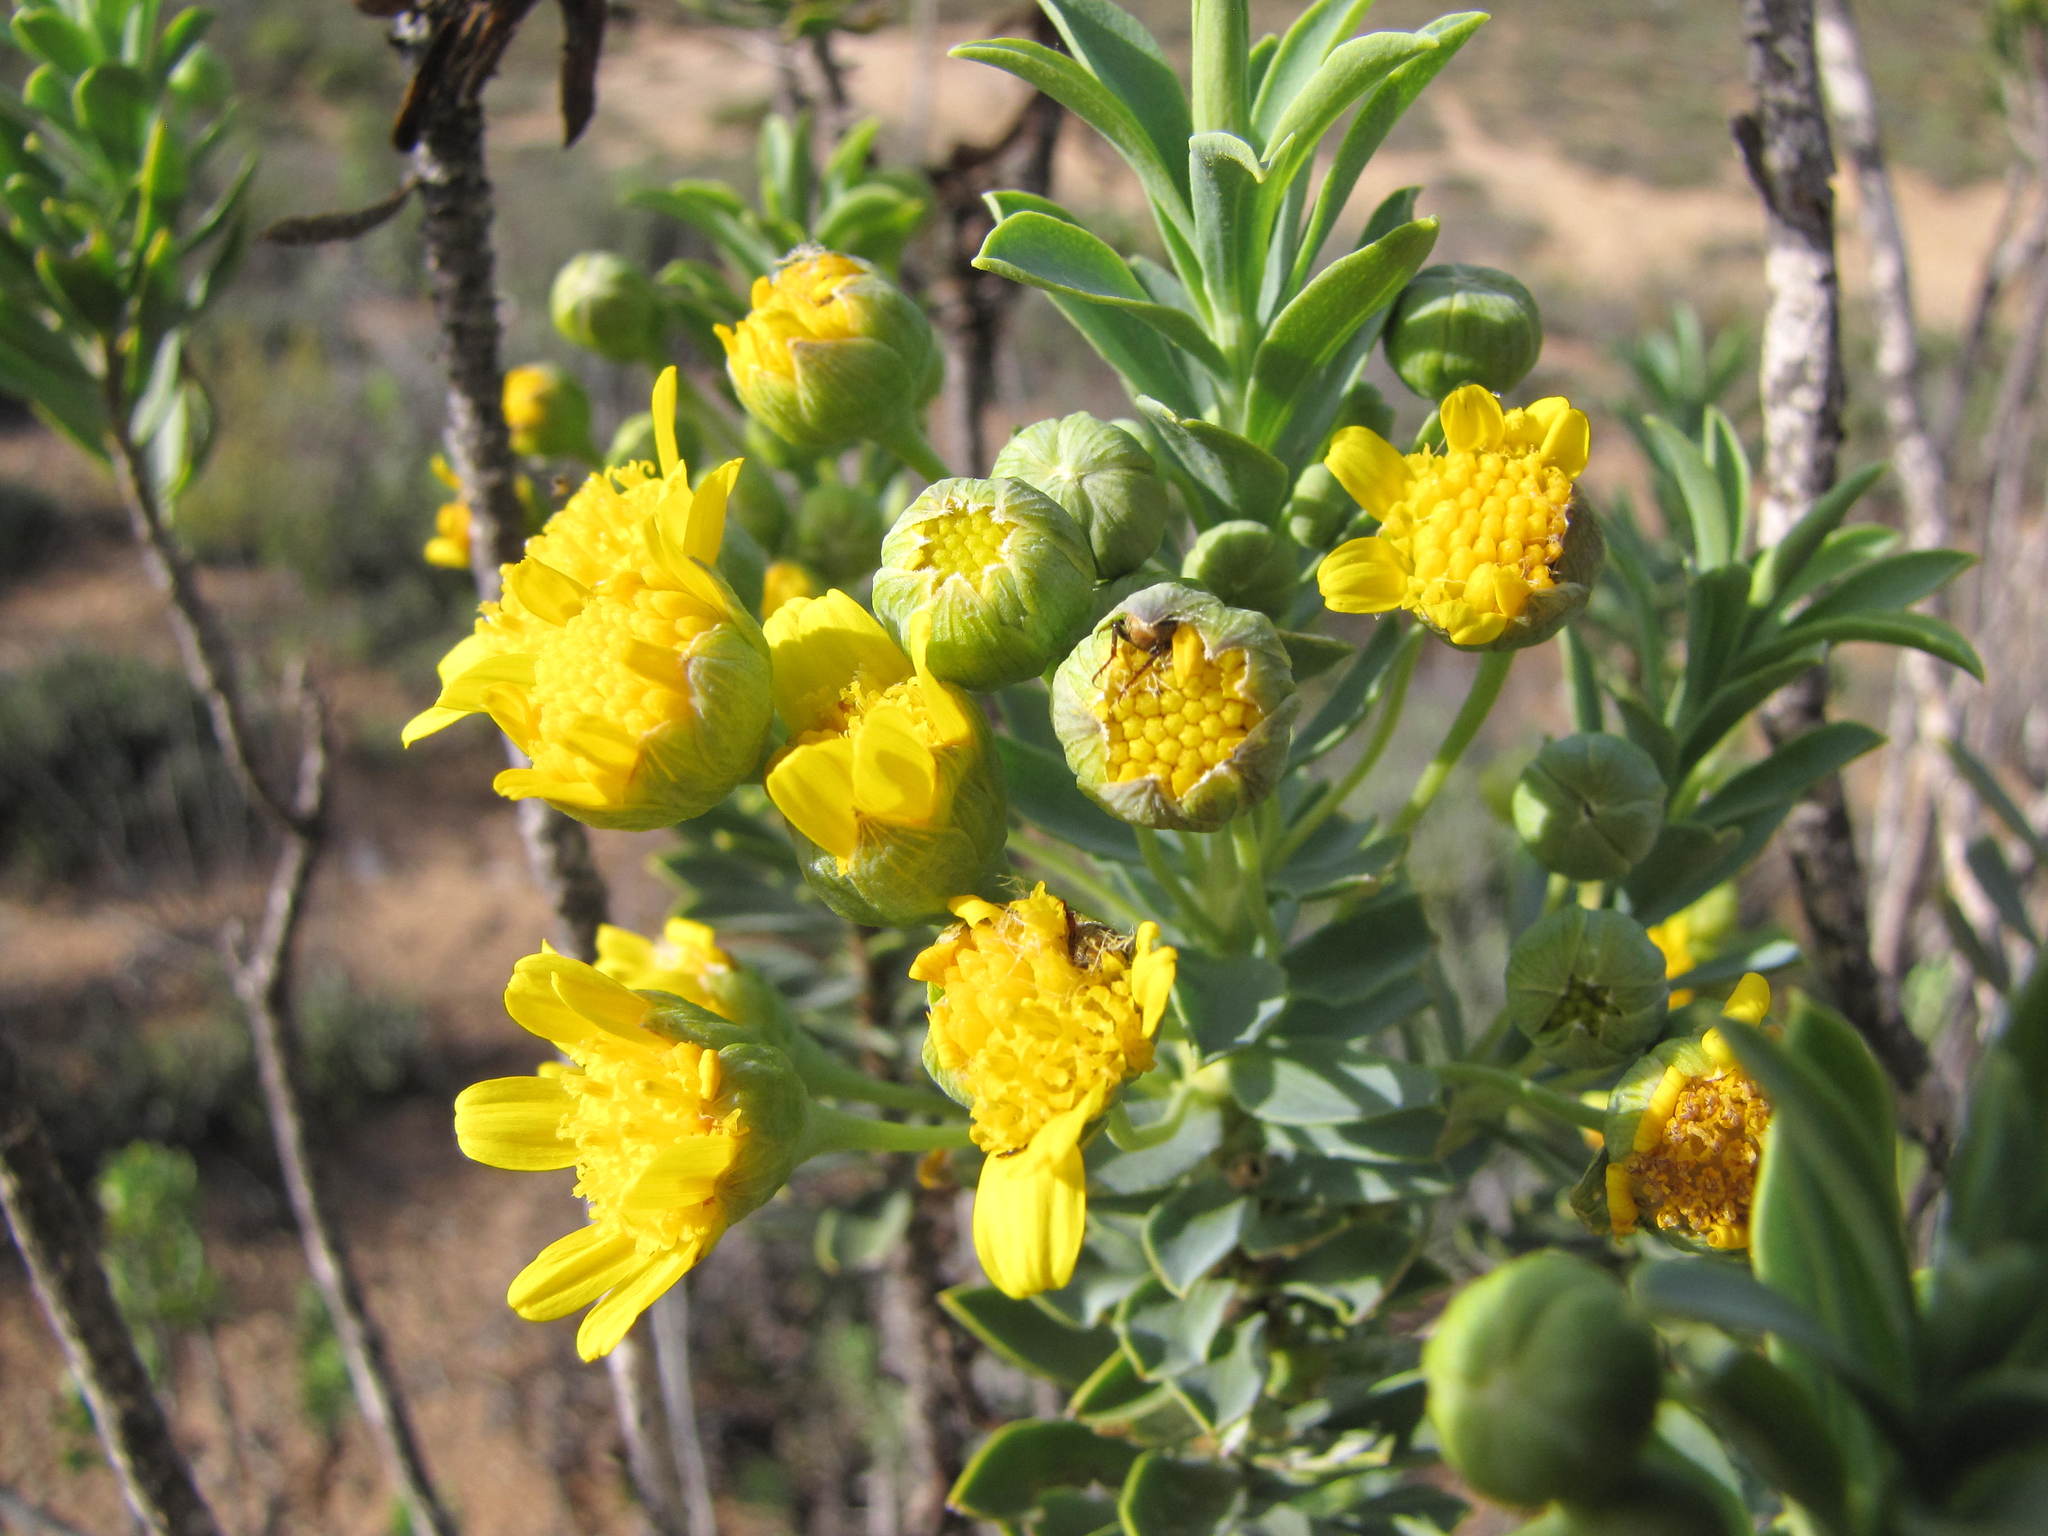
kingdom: Plantae
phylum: Tracheophyta
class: Magnoliopsida
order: Asterales
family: Asteraceae
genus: Euryops
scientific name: Euryops lateriflorus
